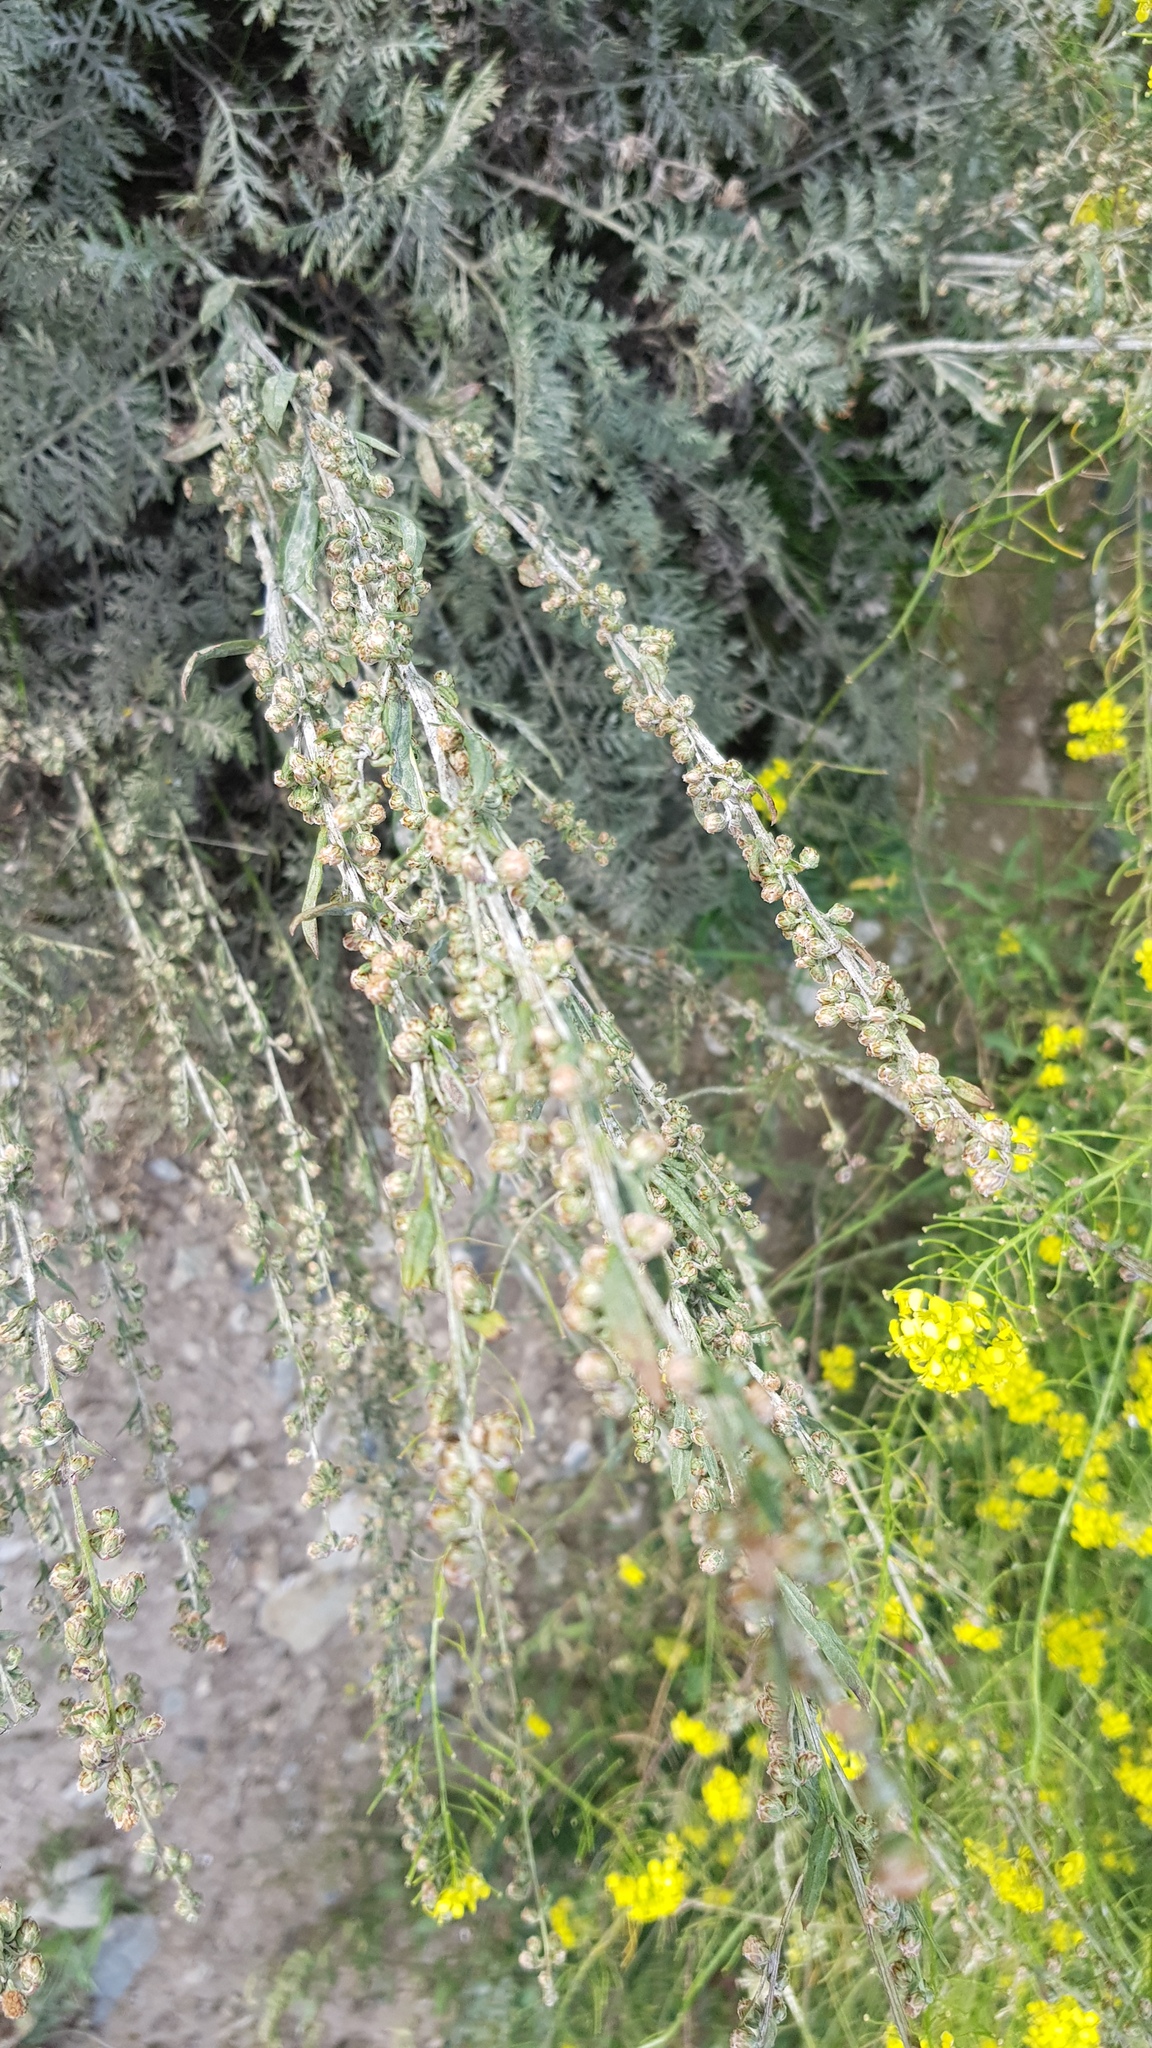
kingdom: Plantae
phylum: Tracheophyta
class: Magnoliopsida
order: Asterales
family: Asteraceae
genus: Artemisia
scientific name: Artemisia gmelinii
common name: Gmelin's wormwood
